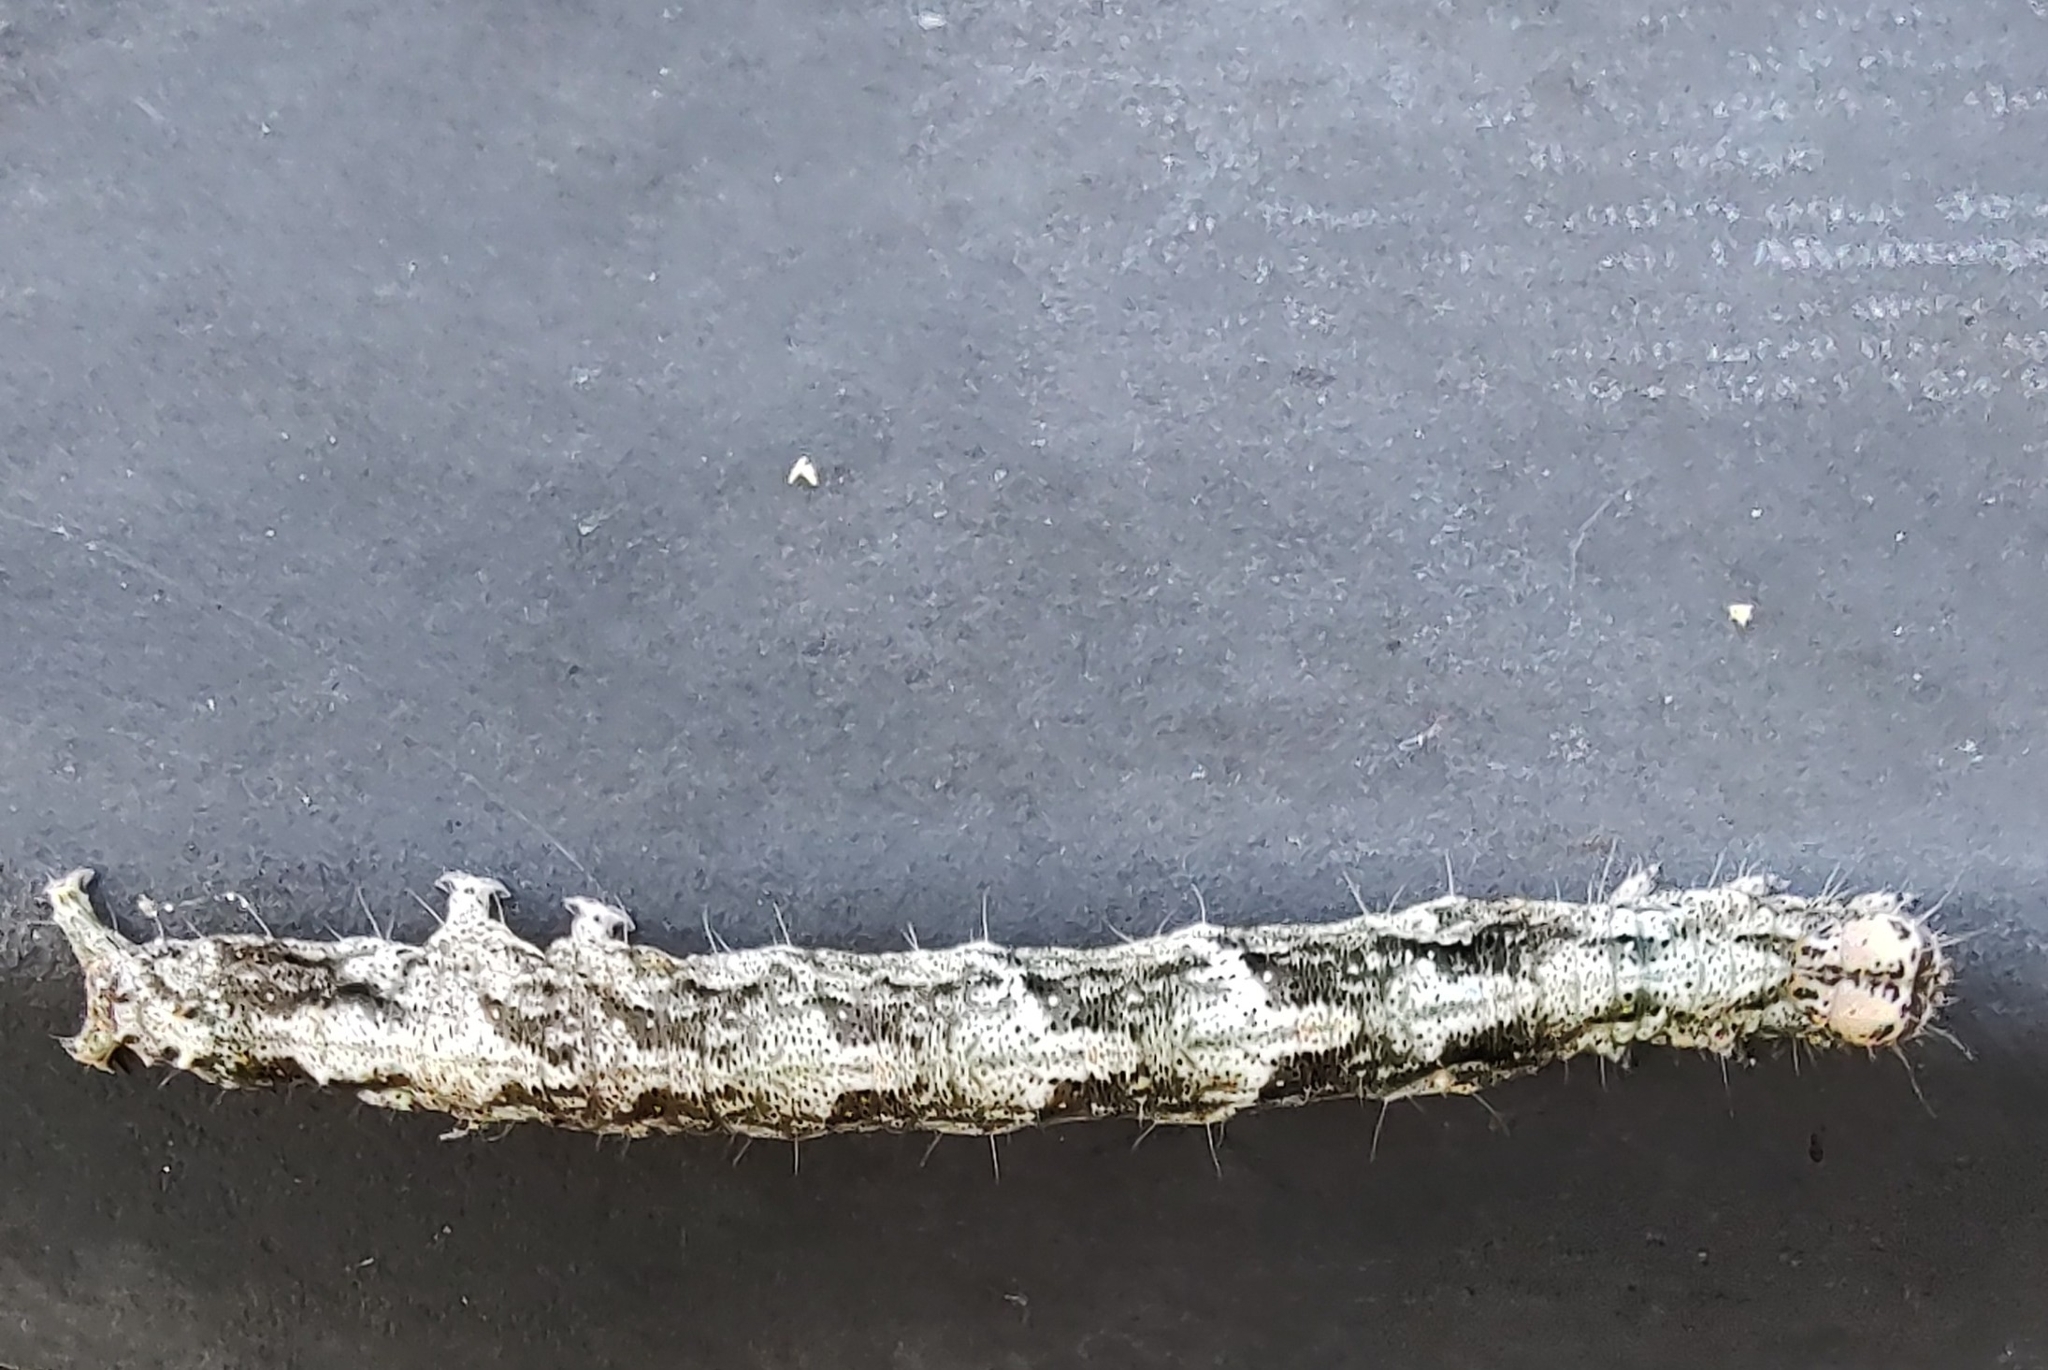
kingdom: Animalia
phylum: Arthropoda
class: Insecta
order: Lepidoptera
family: Erebidae
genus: Metria
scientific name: Metria amella
